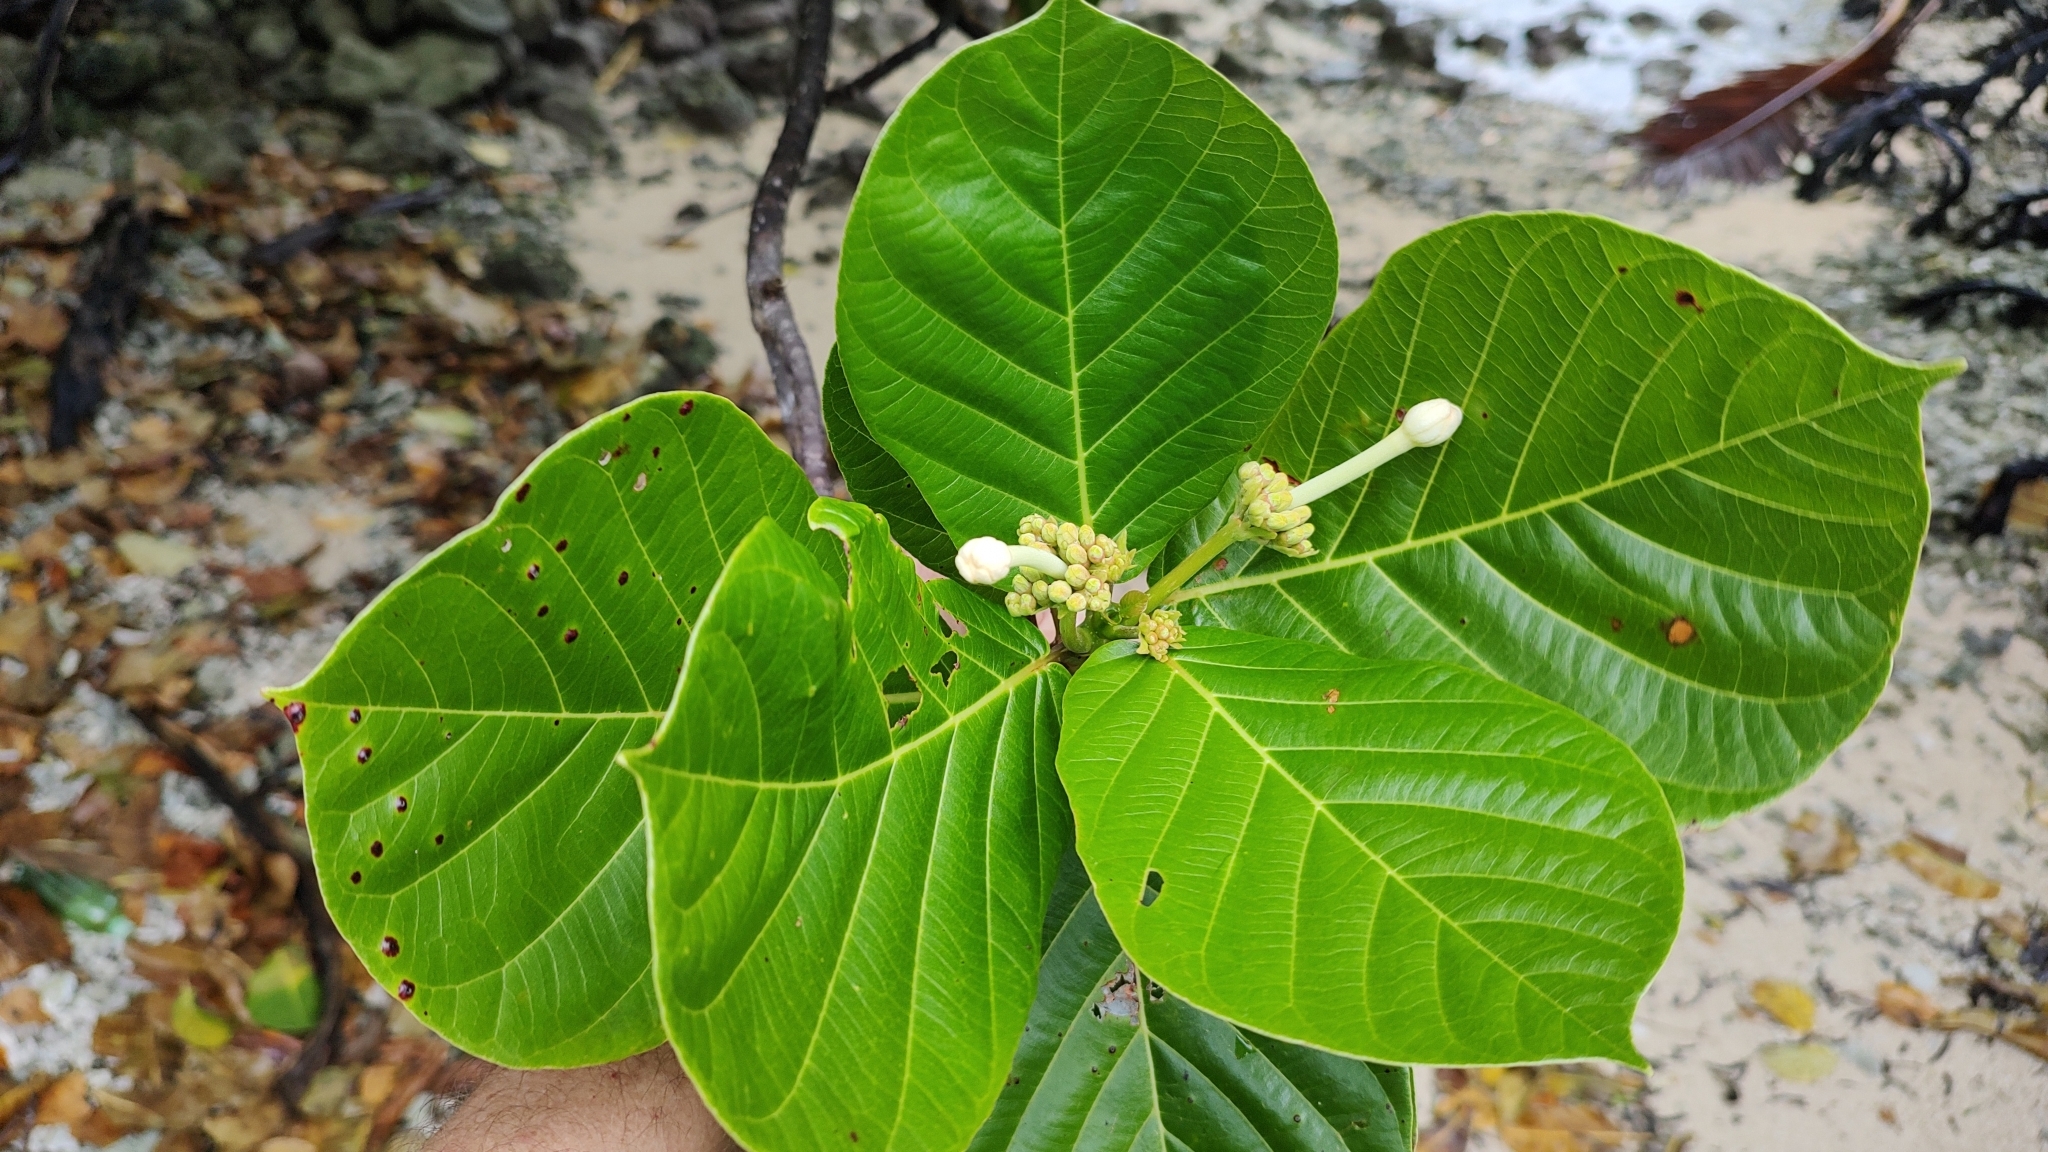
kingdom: Plantae
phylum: Tracheophyta
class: Magnoliopsida
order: Gentianales
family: Rubiaceae
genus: Guettarda
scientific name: Guettarda speciosa
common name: Sea randa
